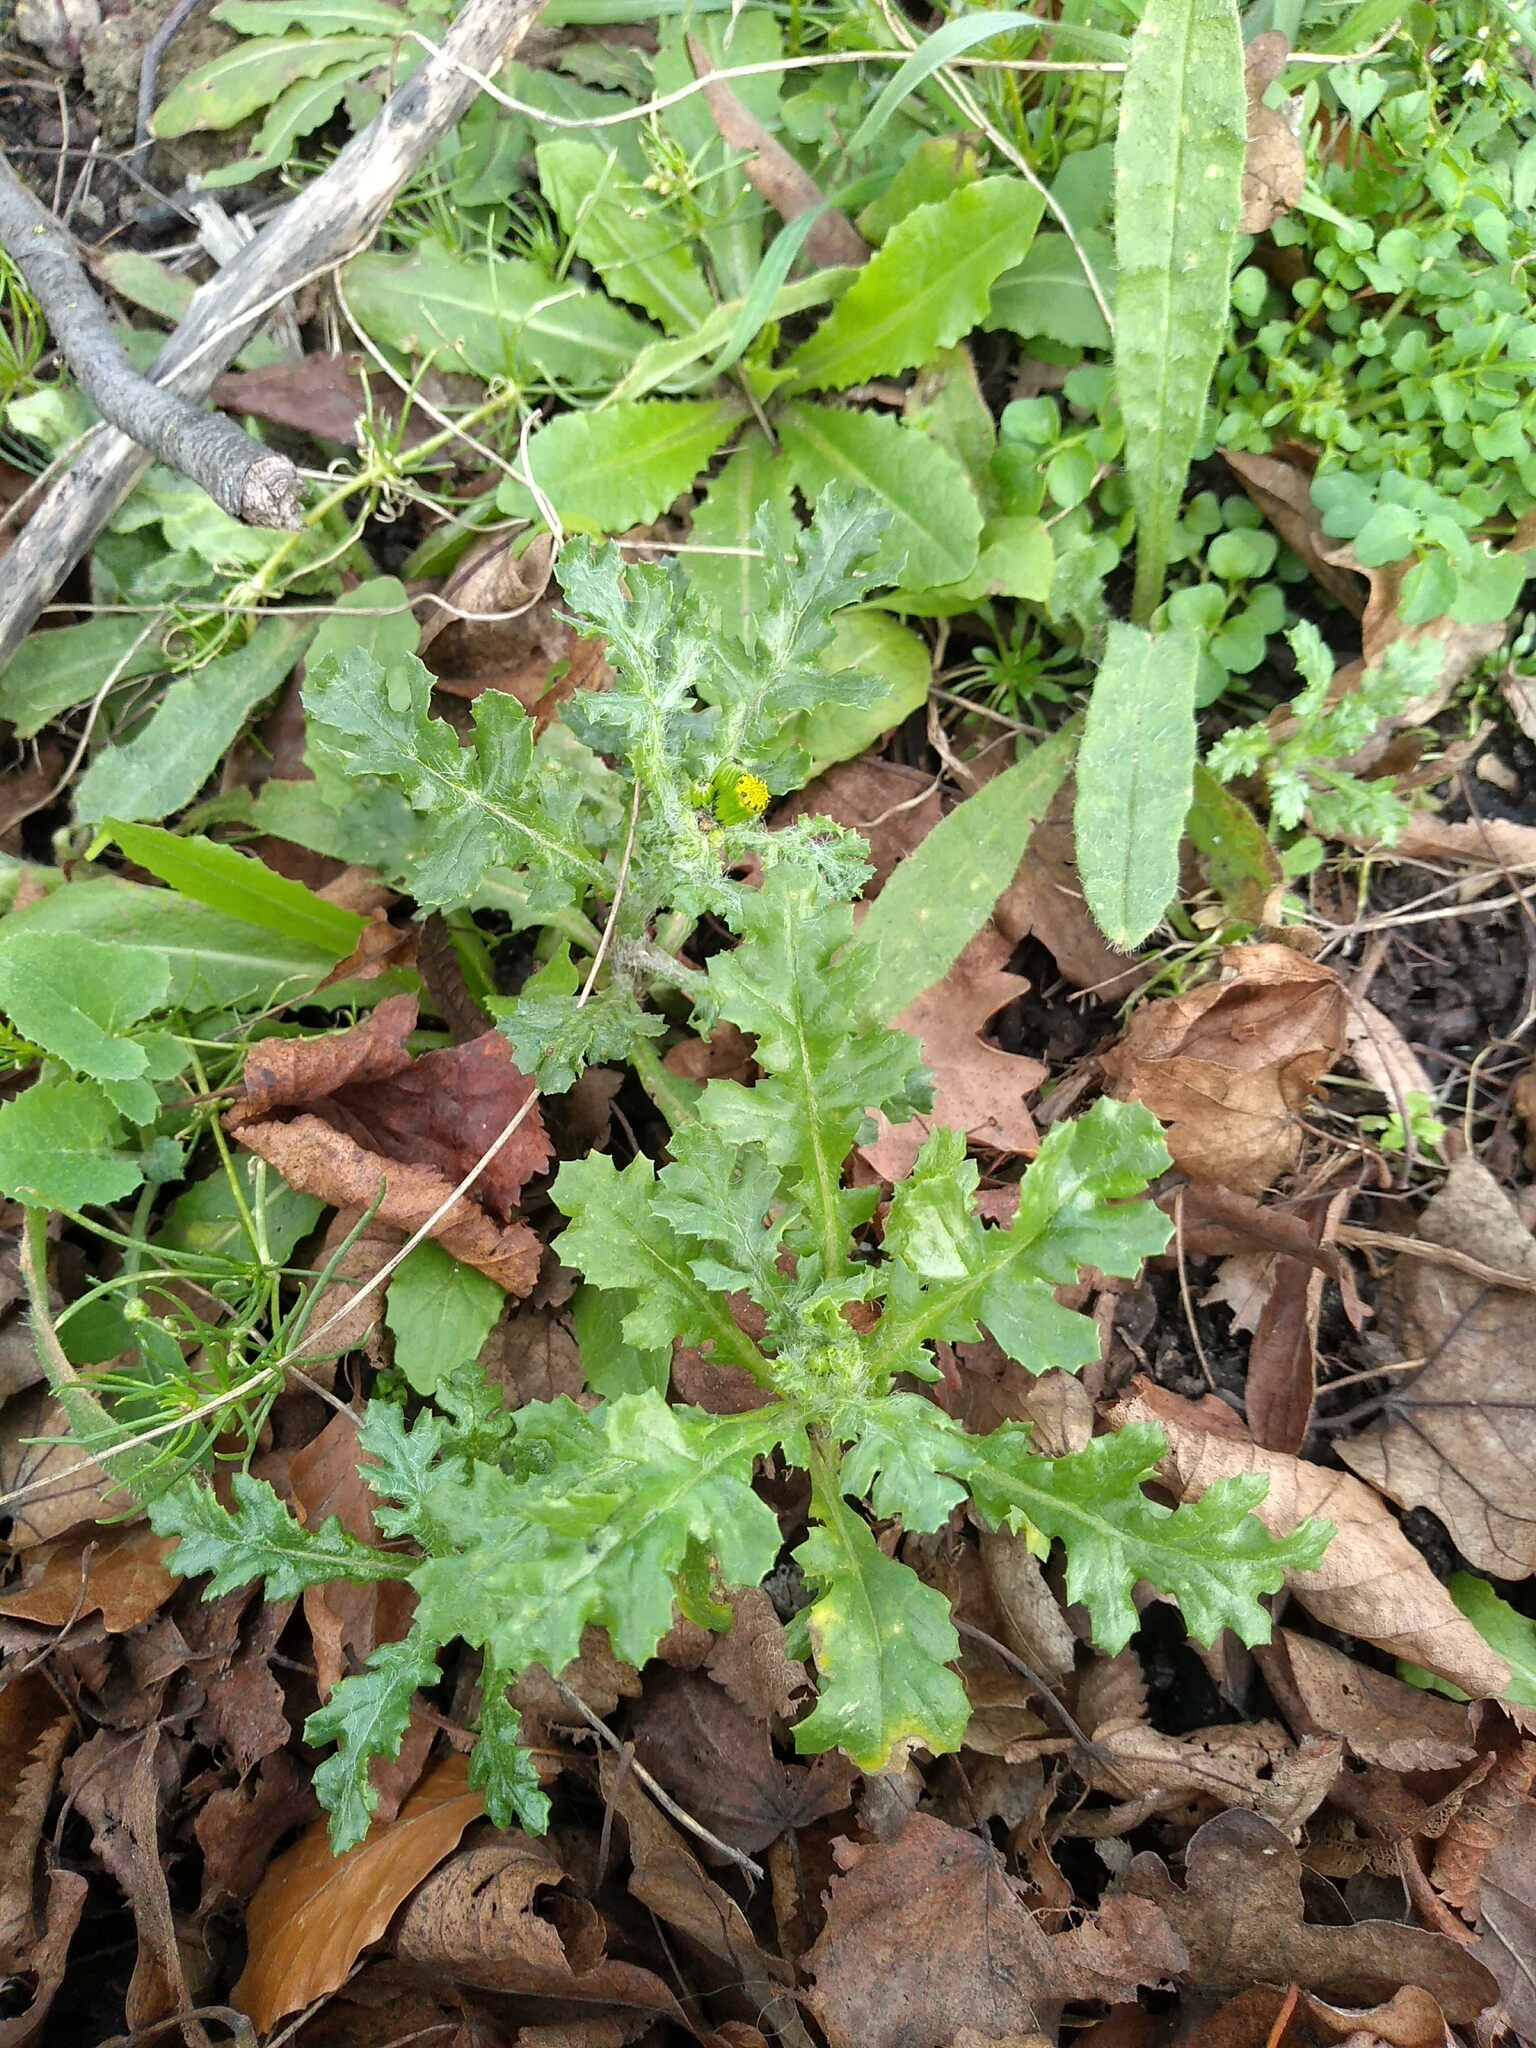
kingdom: Plantae
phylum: Tracheophyta
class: Magnoliopsida
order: Asterales
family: Asteraceae
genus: Senecio
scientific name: Senecio vulgaris
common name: Old-man-in-the-spring
